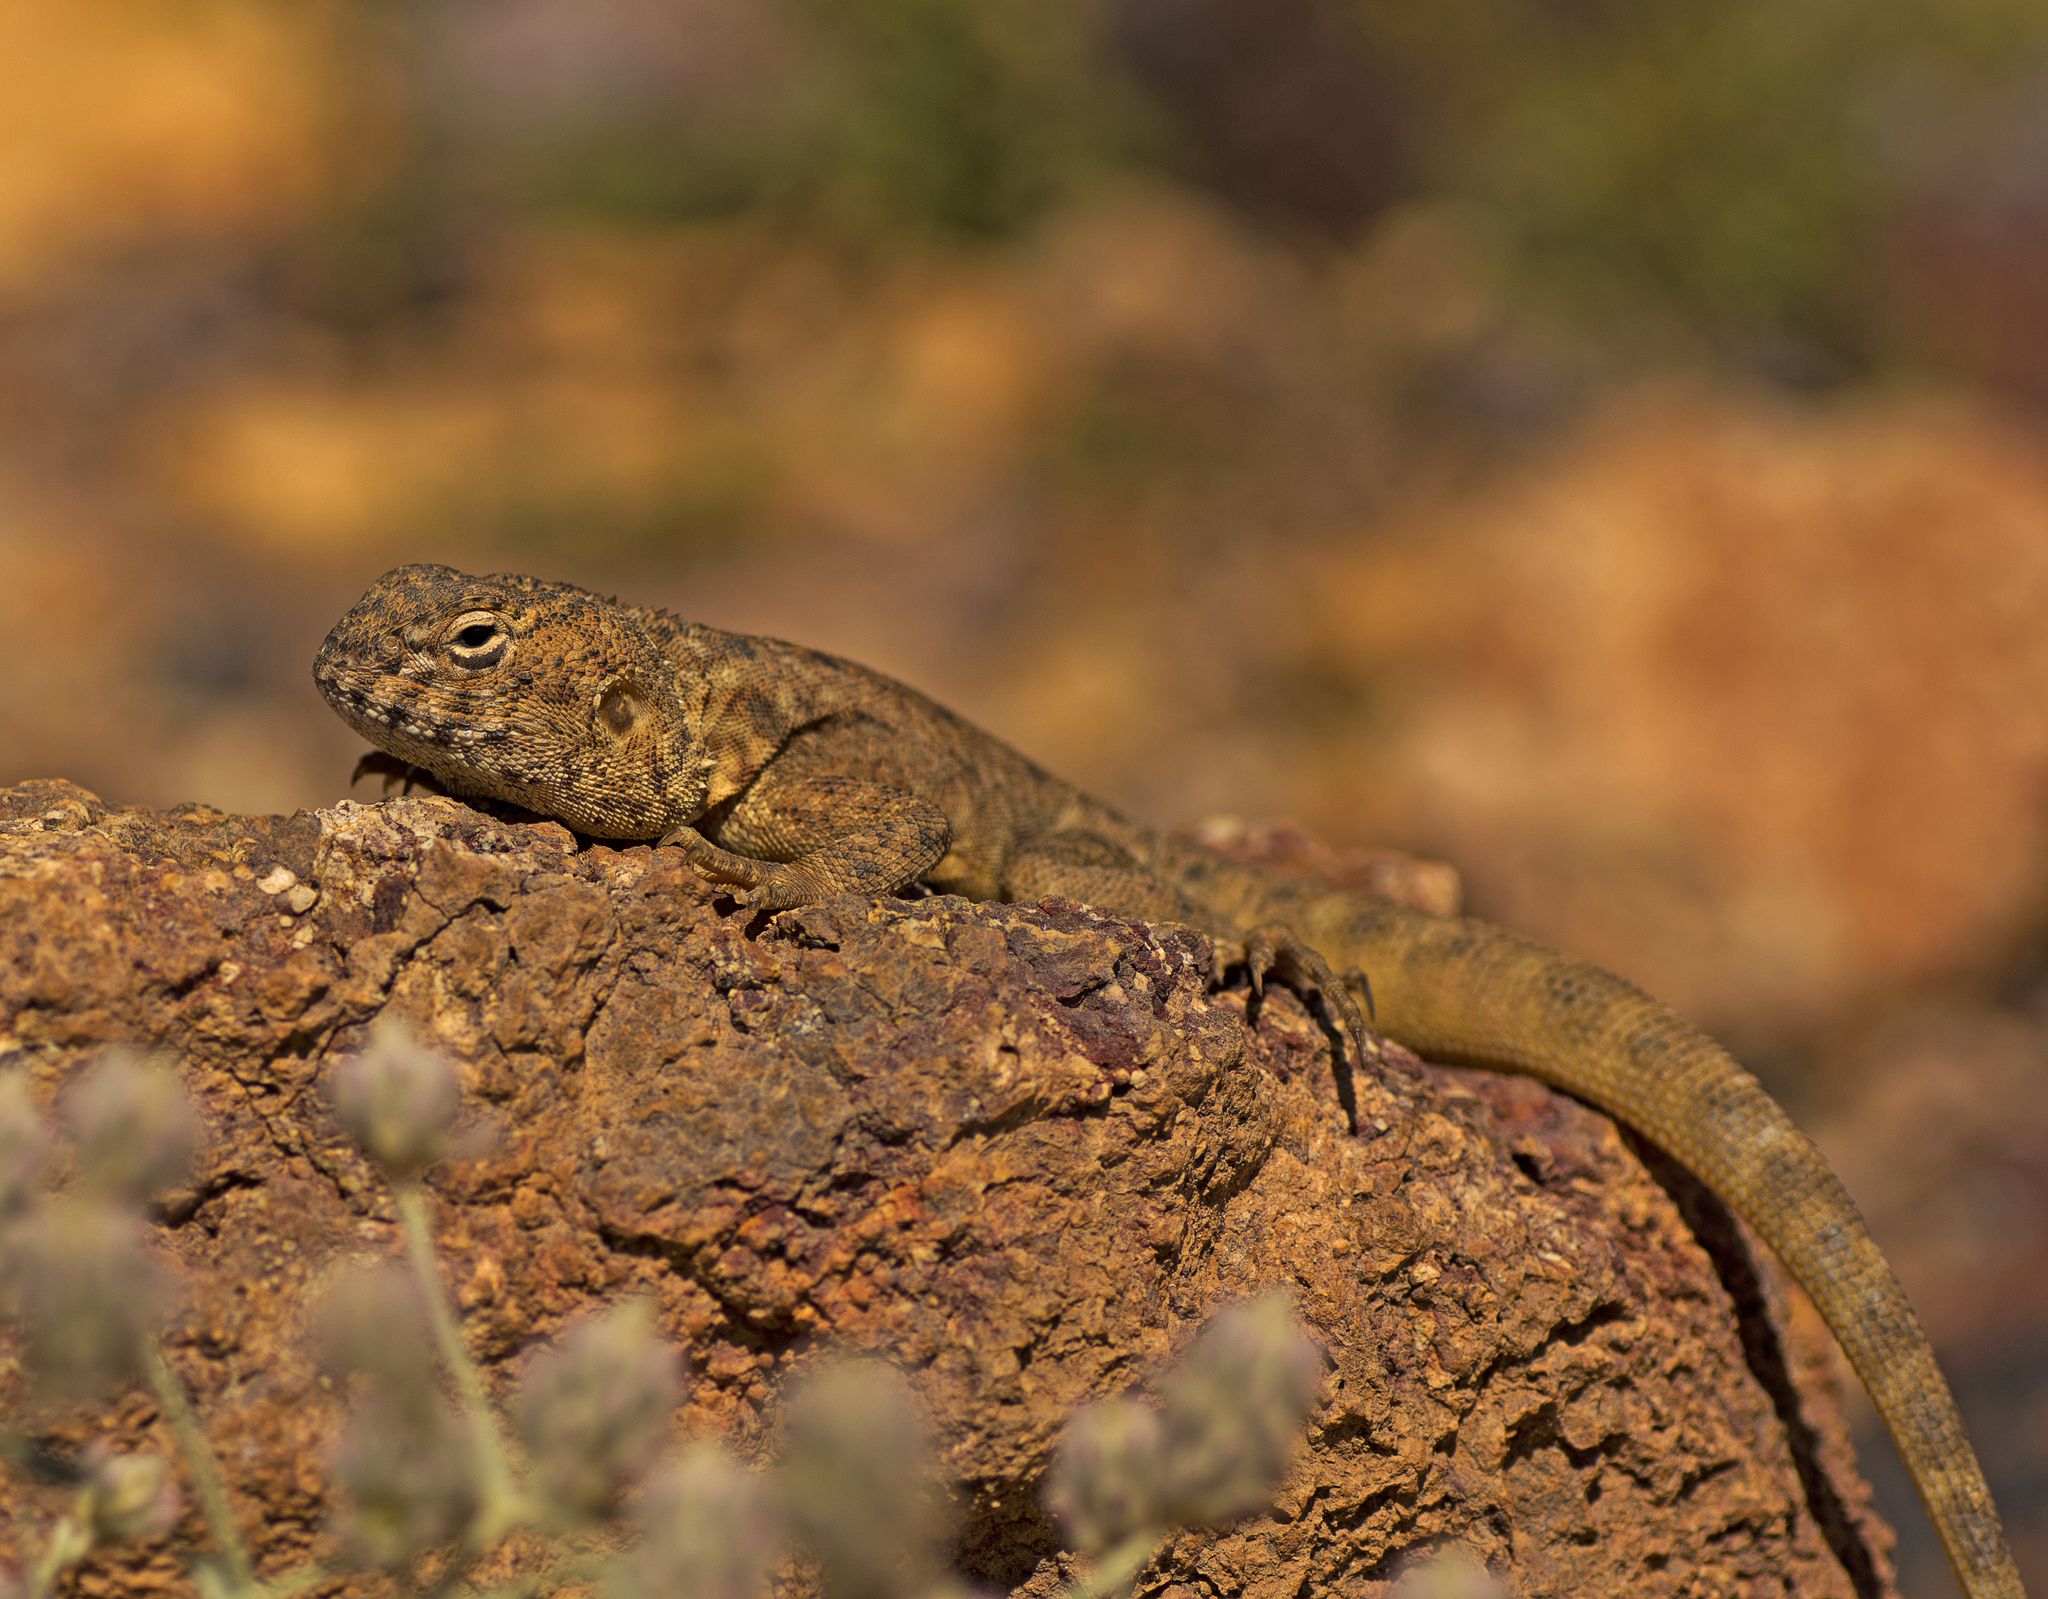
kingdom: Animalia
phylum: Chordata
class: Squamata
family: Agamidae
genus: Ctenophorus
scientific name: Ctenophorus slateri
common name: Slater’s dragon
